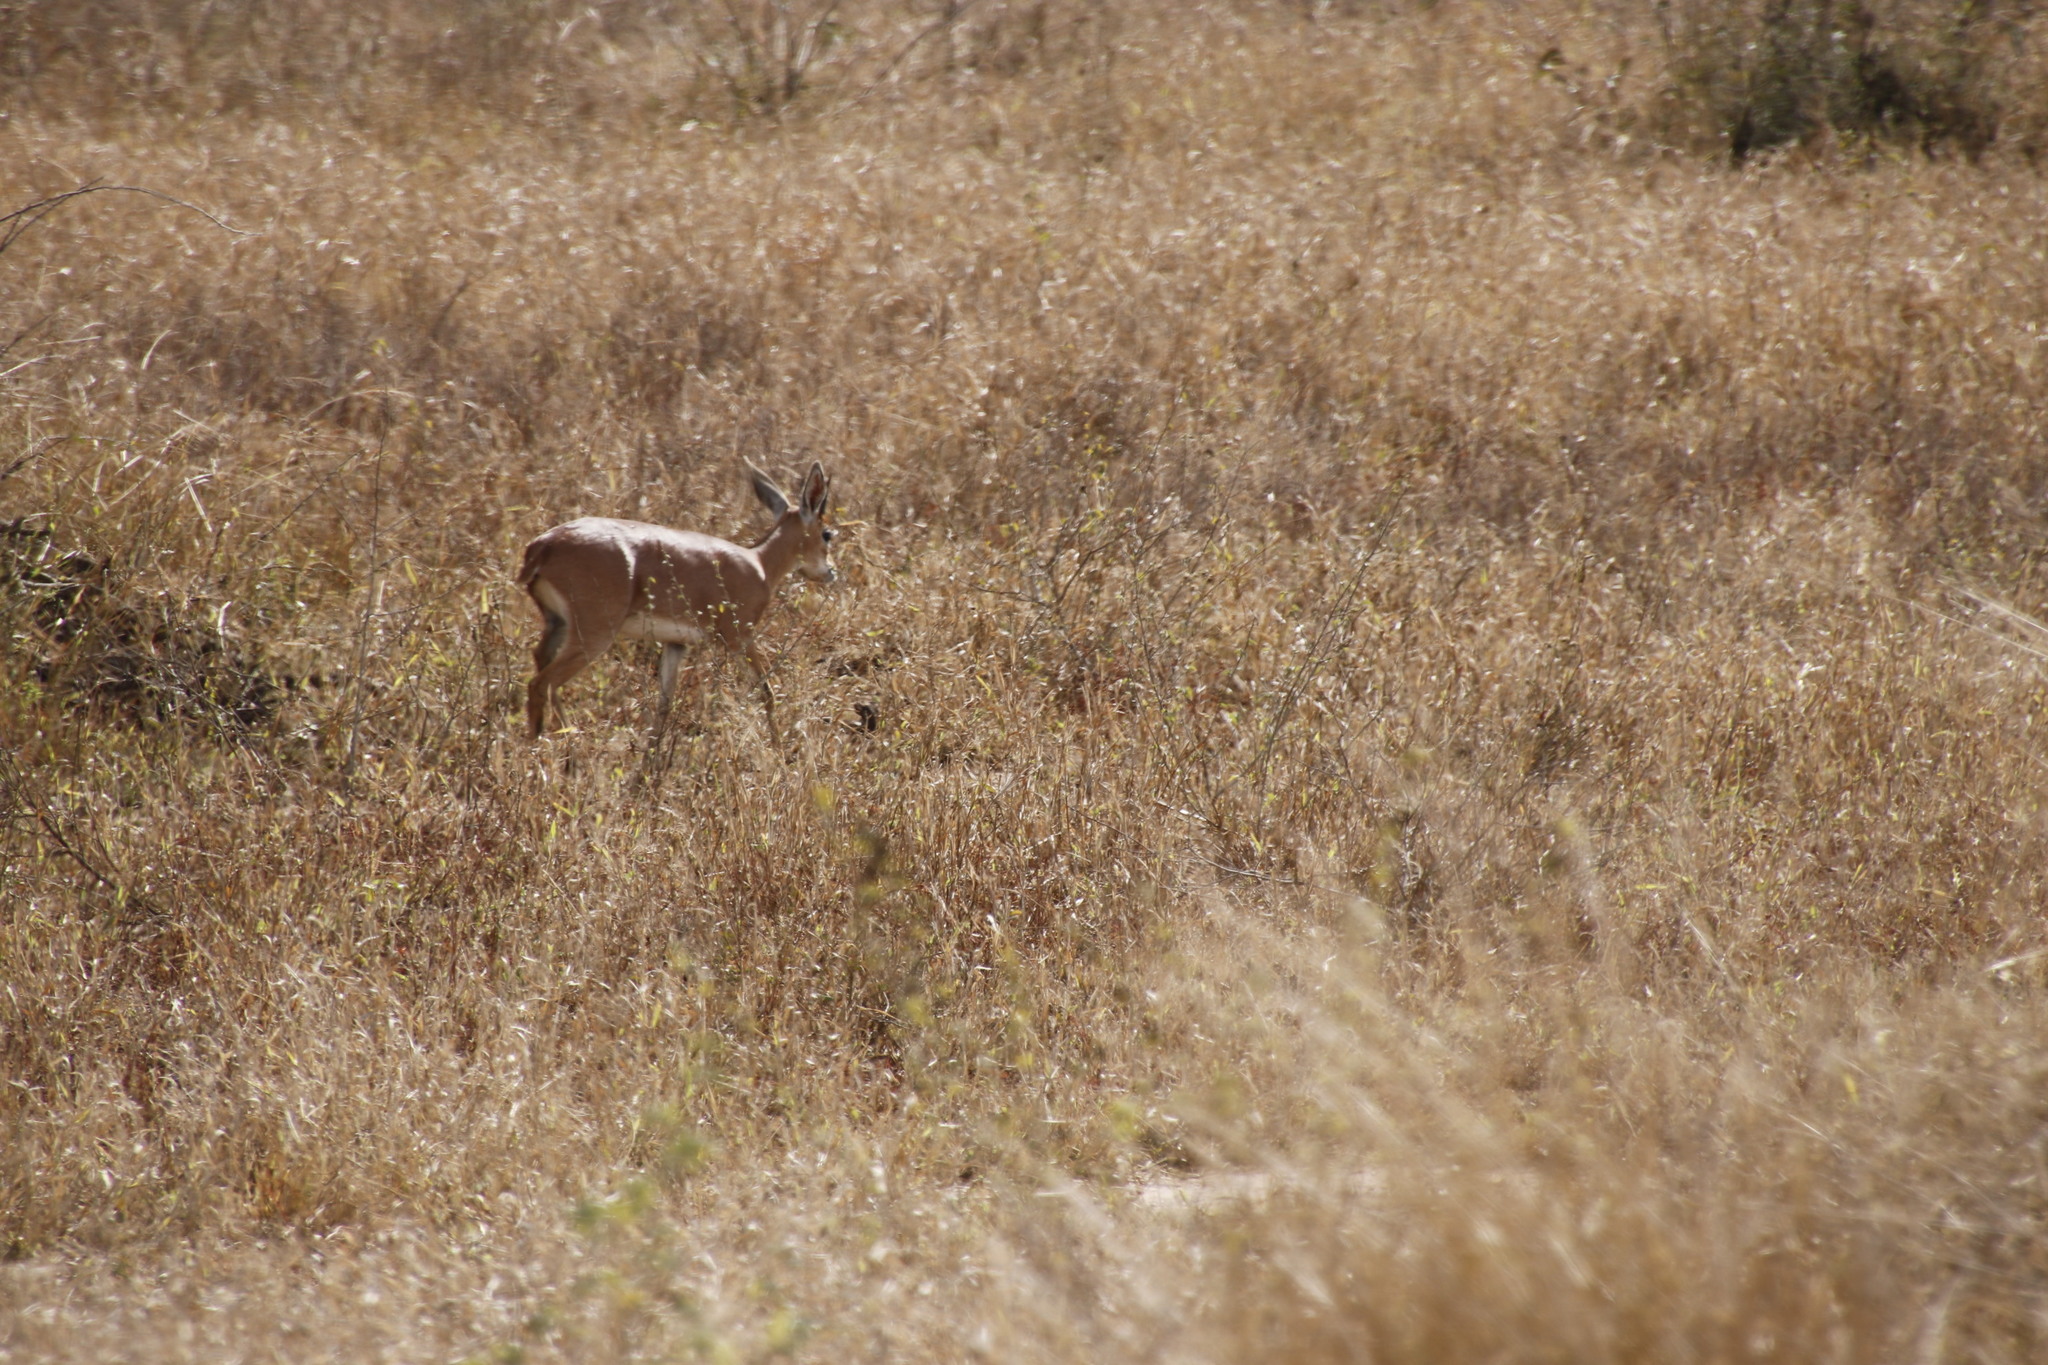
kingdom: Animalia
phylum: Chordata
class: Mammalia
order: Artiodactyla
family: Bovidae
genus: Raphicerus
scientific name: Raphicerus campestris
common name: Steenbok
